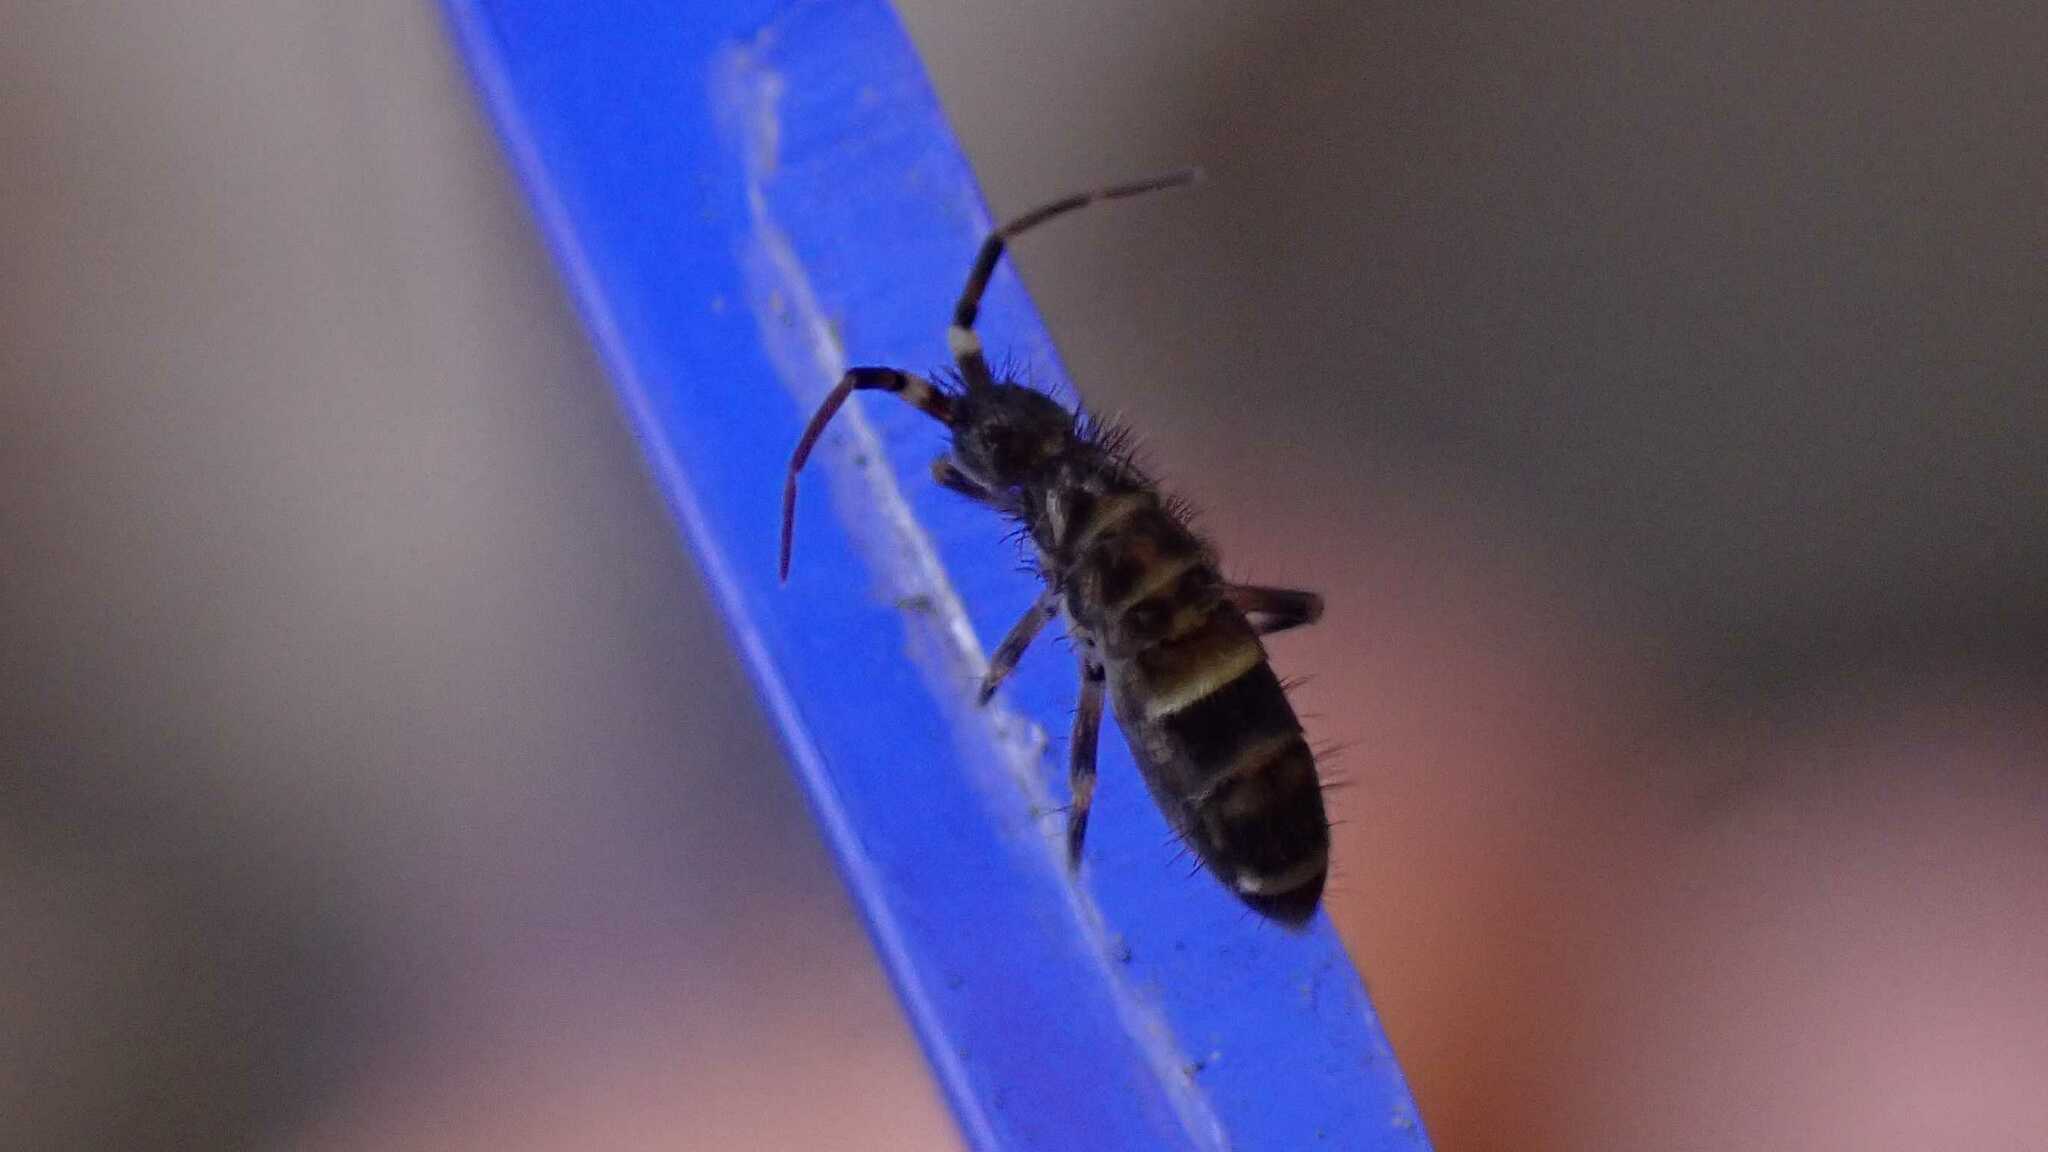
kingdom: Animalia
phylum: Arthropoda
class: Collembola
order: Entomobryomorpha
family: Orchesellidae
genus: Orchesella
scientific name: Orchesella cincta
